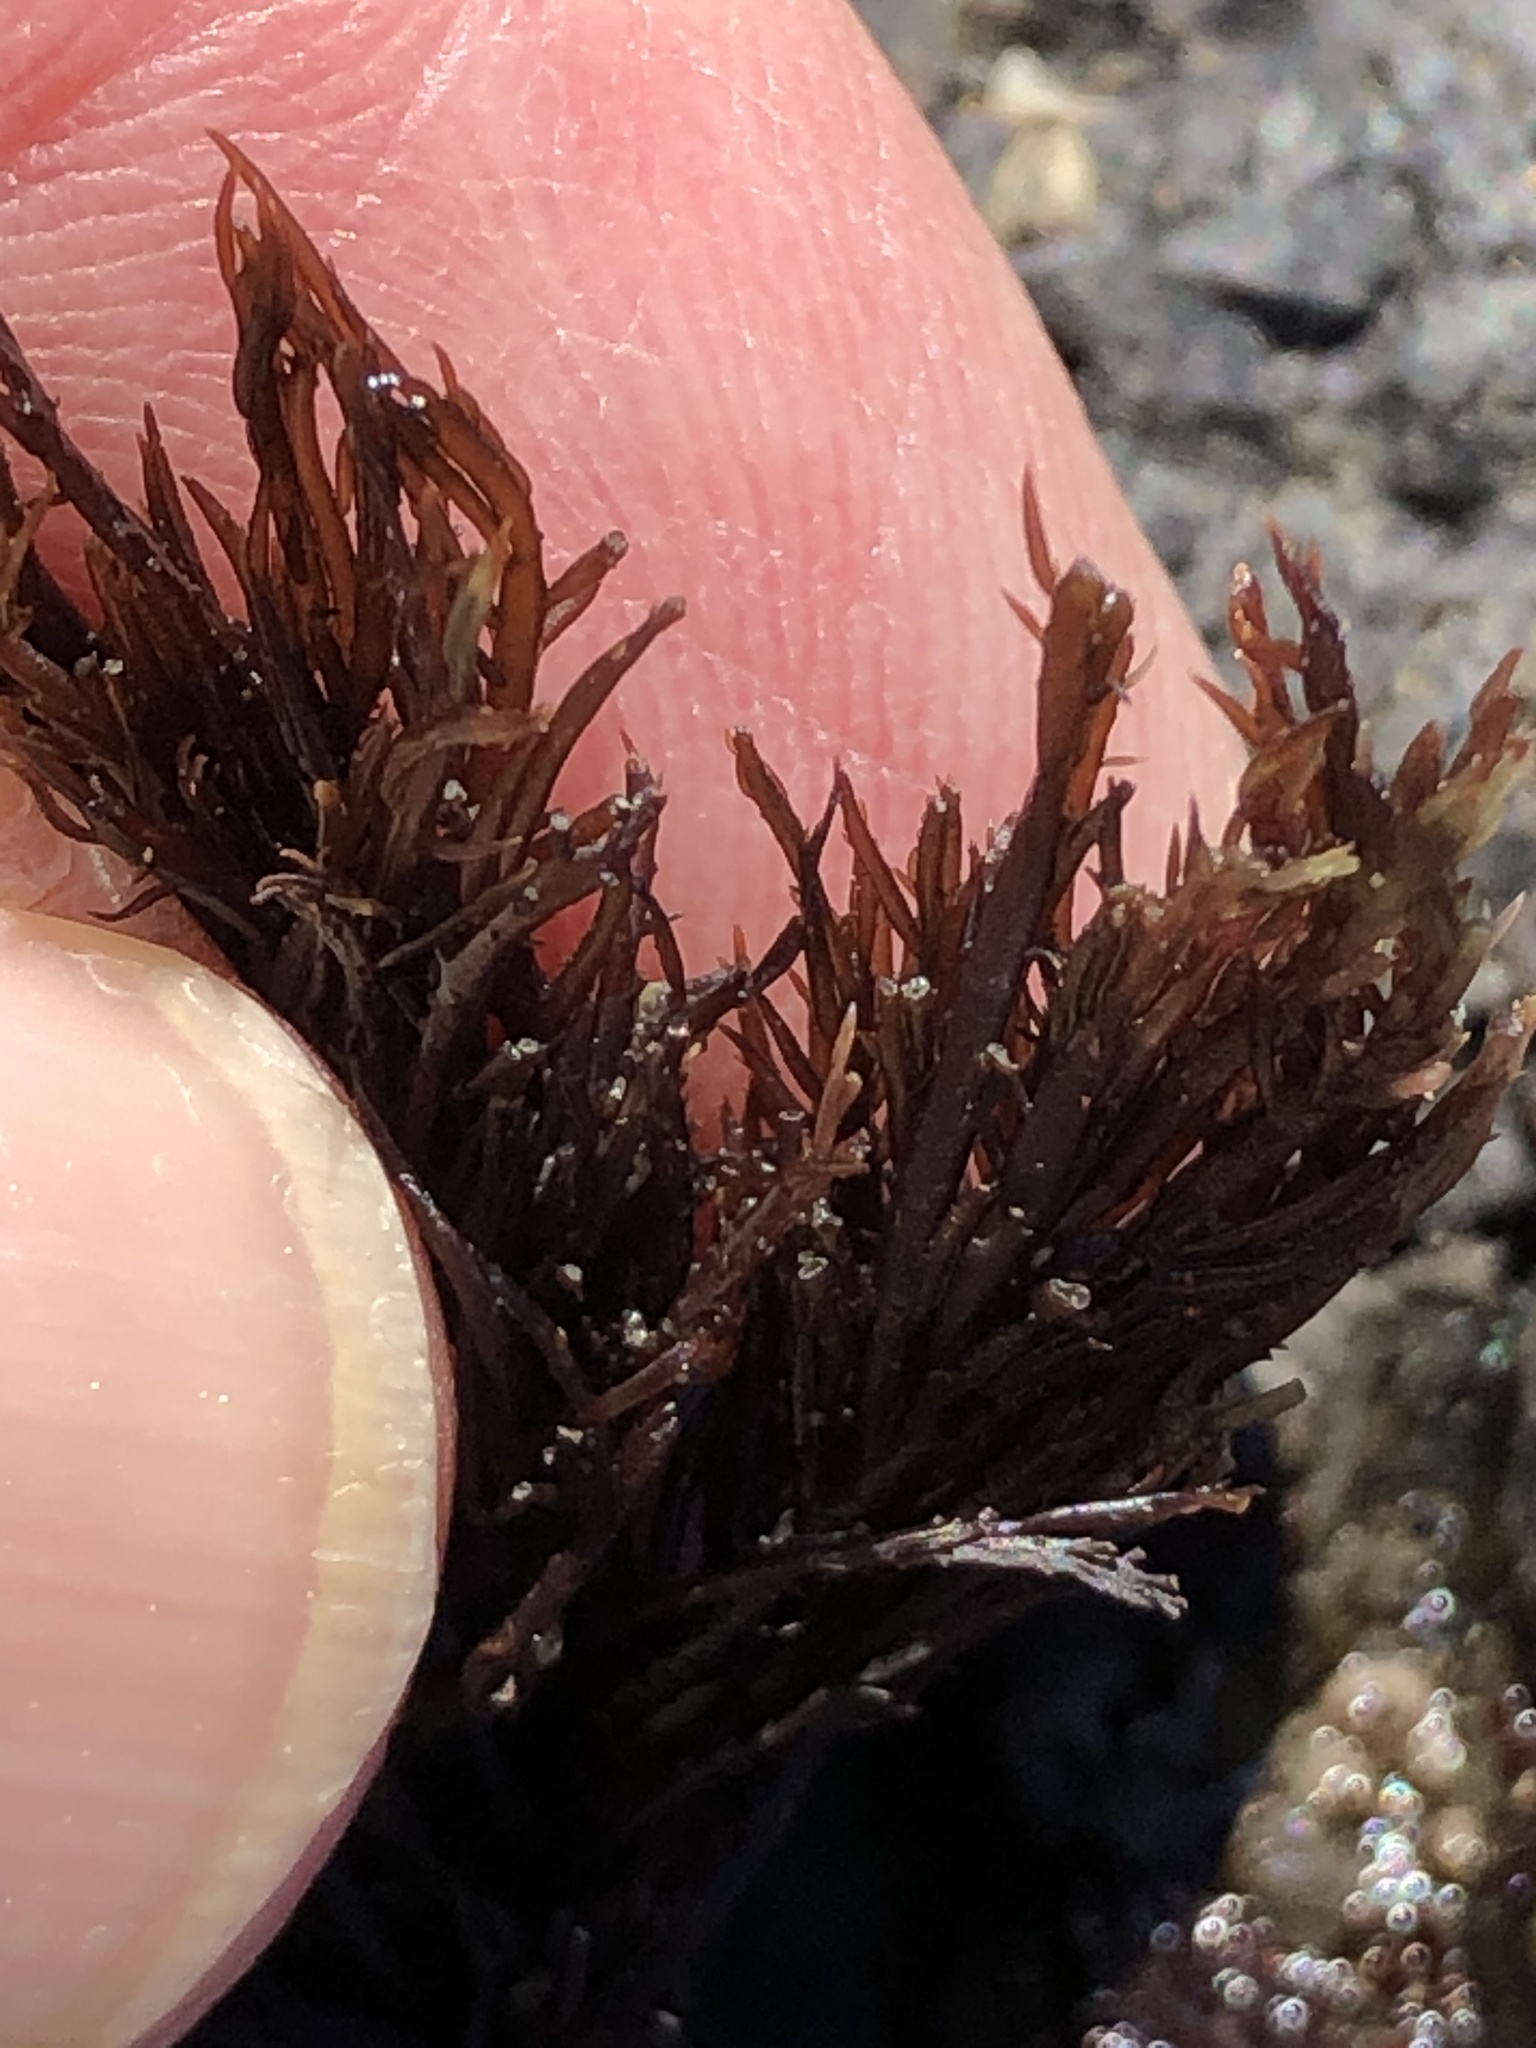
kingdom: Plantae
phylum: Rhodophyta
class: Florideophyceae
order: Gigartinales
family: Dumontiaceae
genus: Cryptosiphonia
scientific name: Cryptosiphonia woodii
